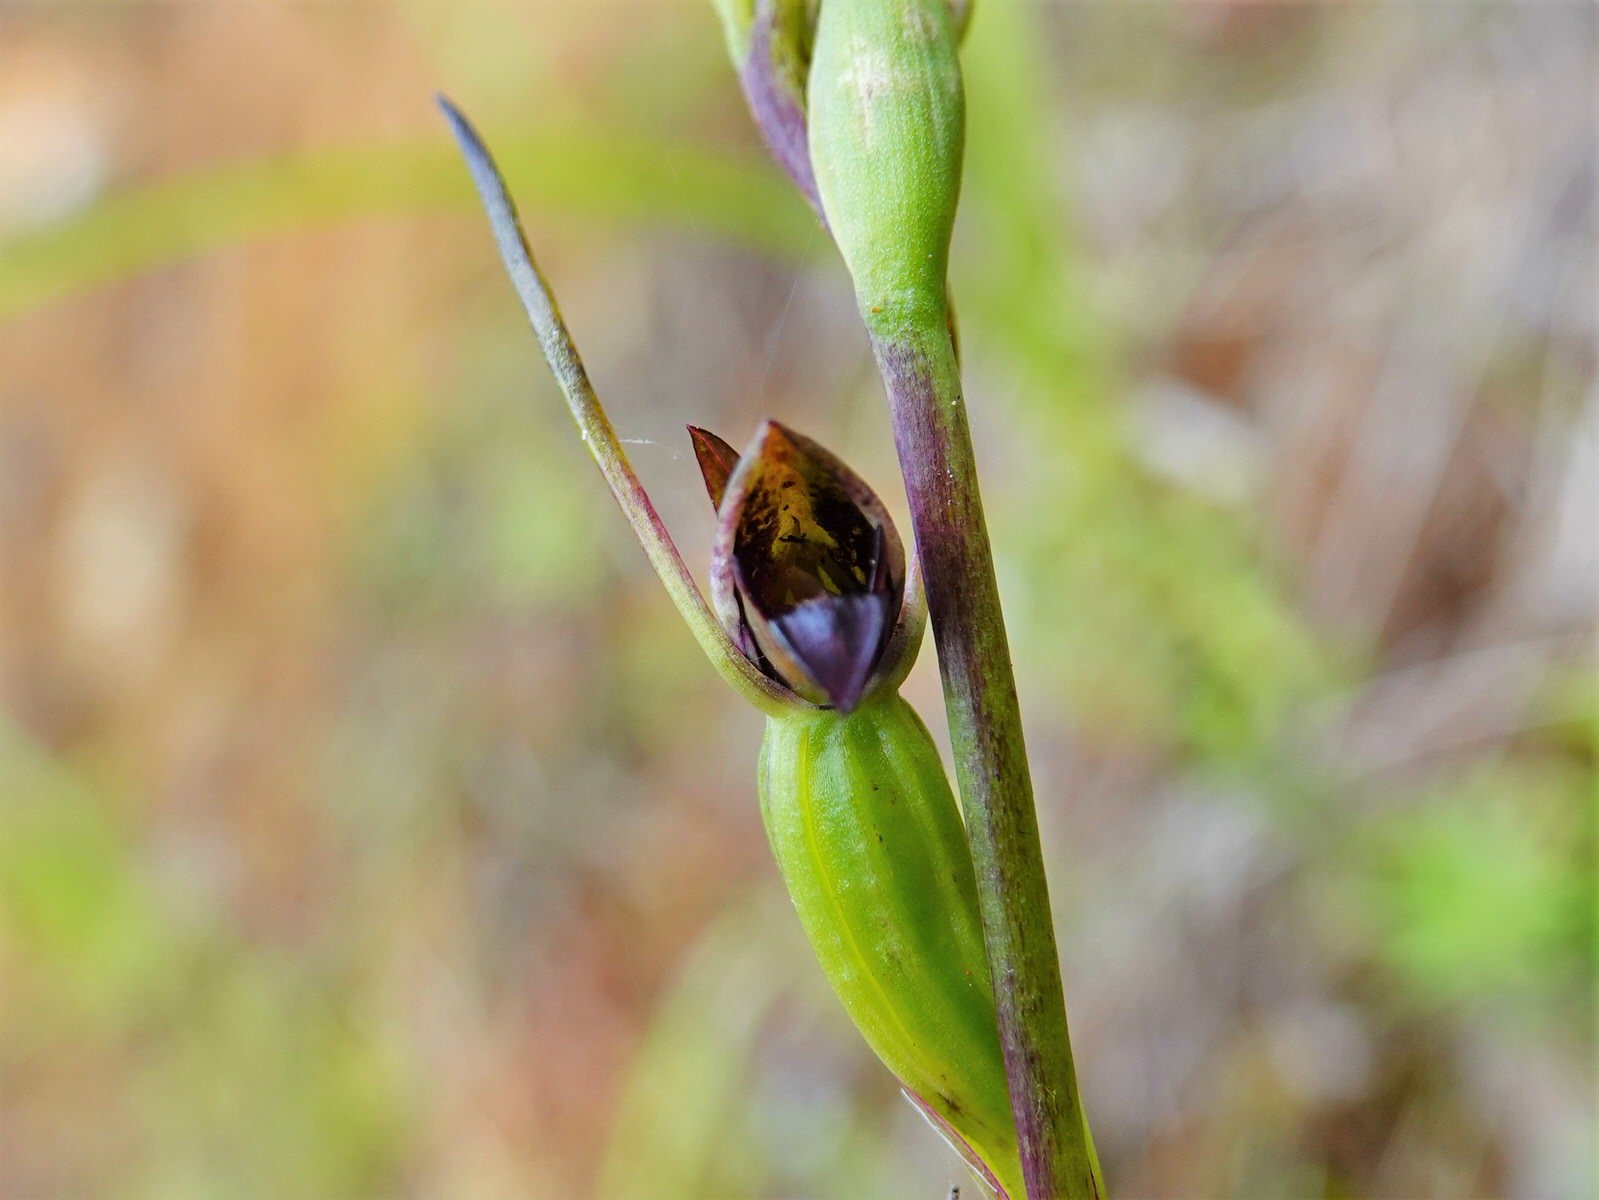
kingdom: Plantae
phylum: Tracheophyta
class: Liliopsida
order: Asparagales
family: Orchidaceae
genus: Orthoceras
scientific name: Orthoceras novae-zeelandiae
